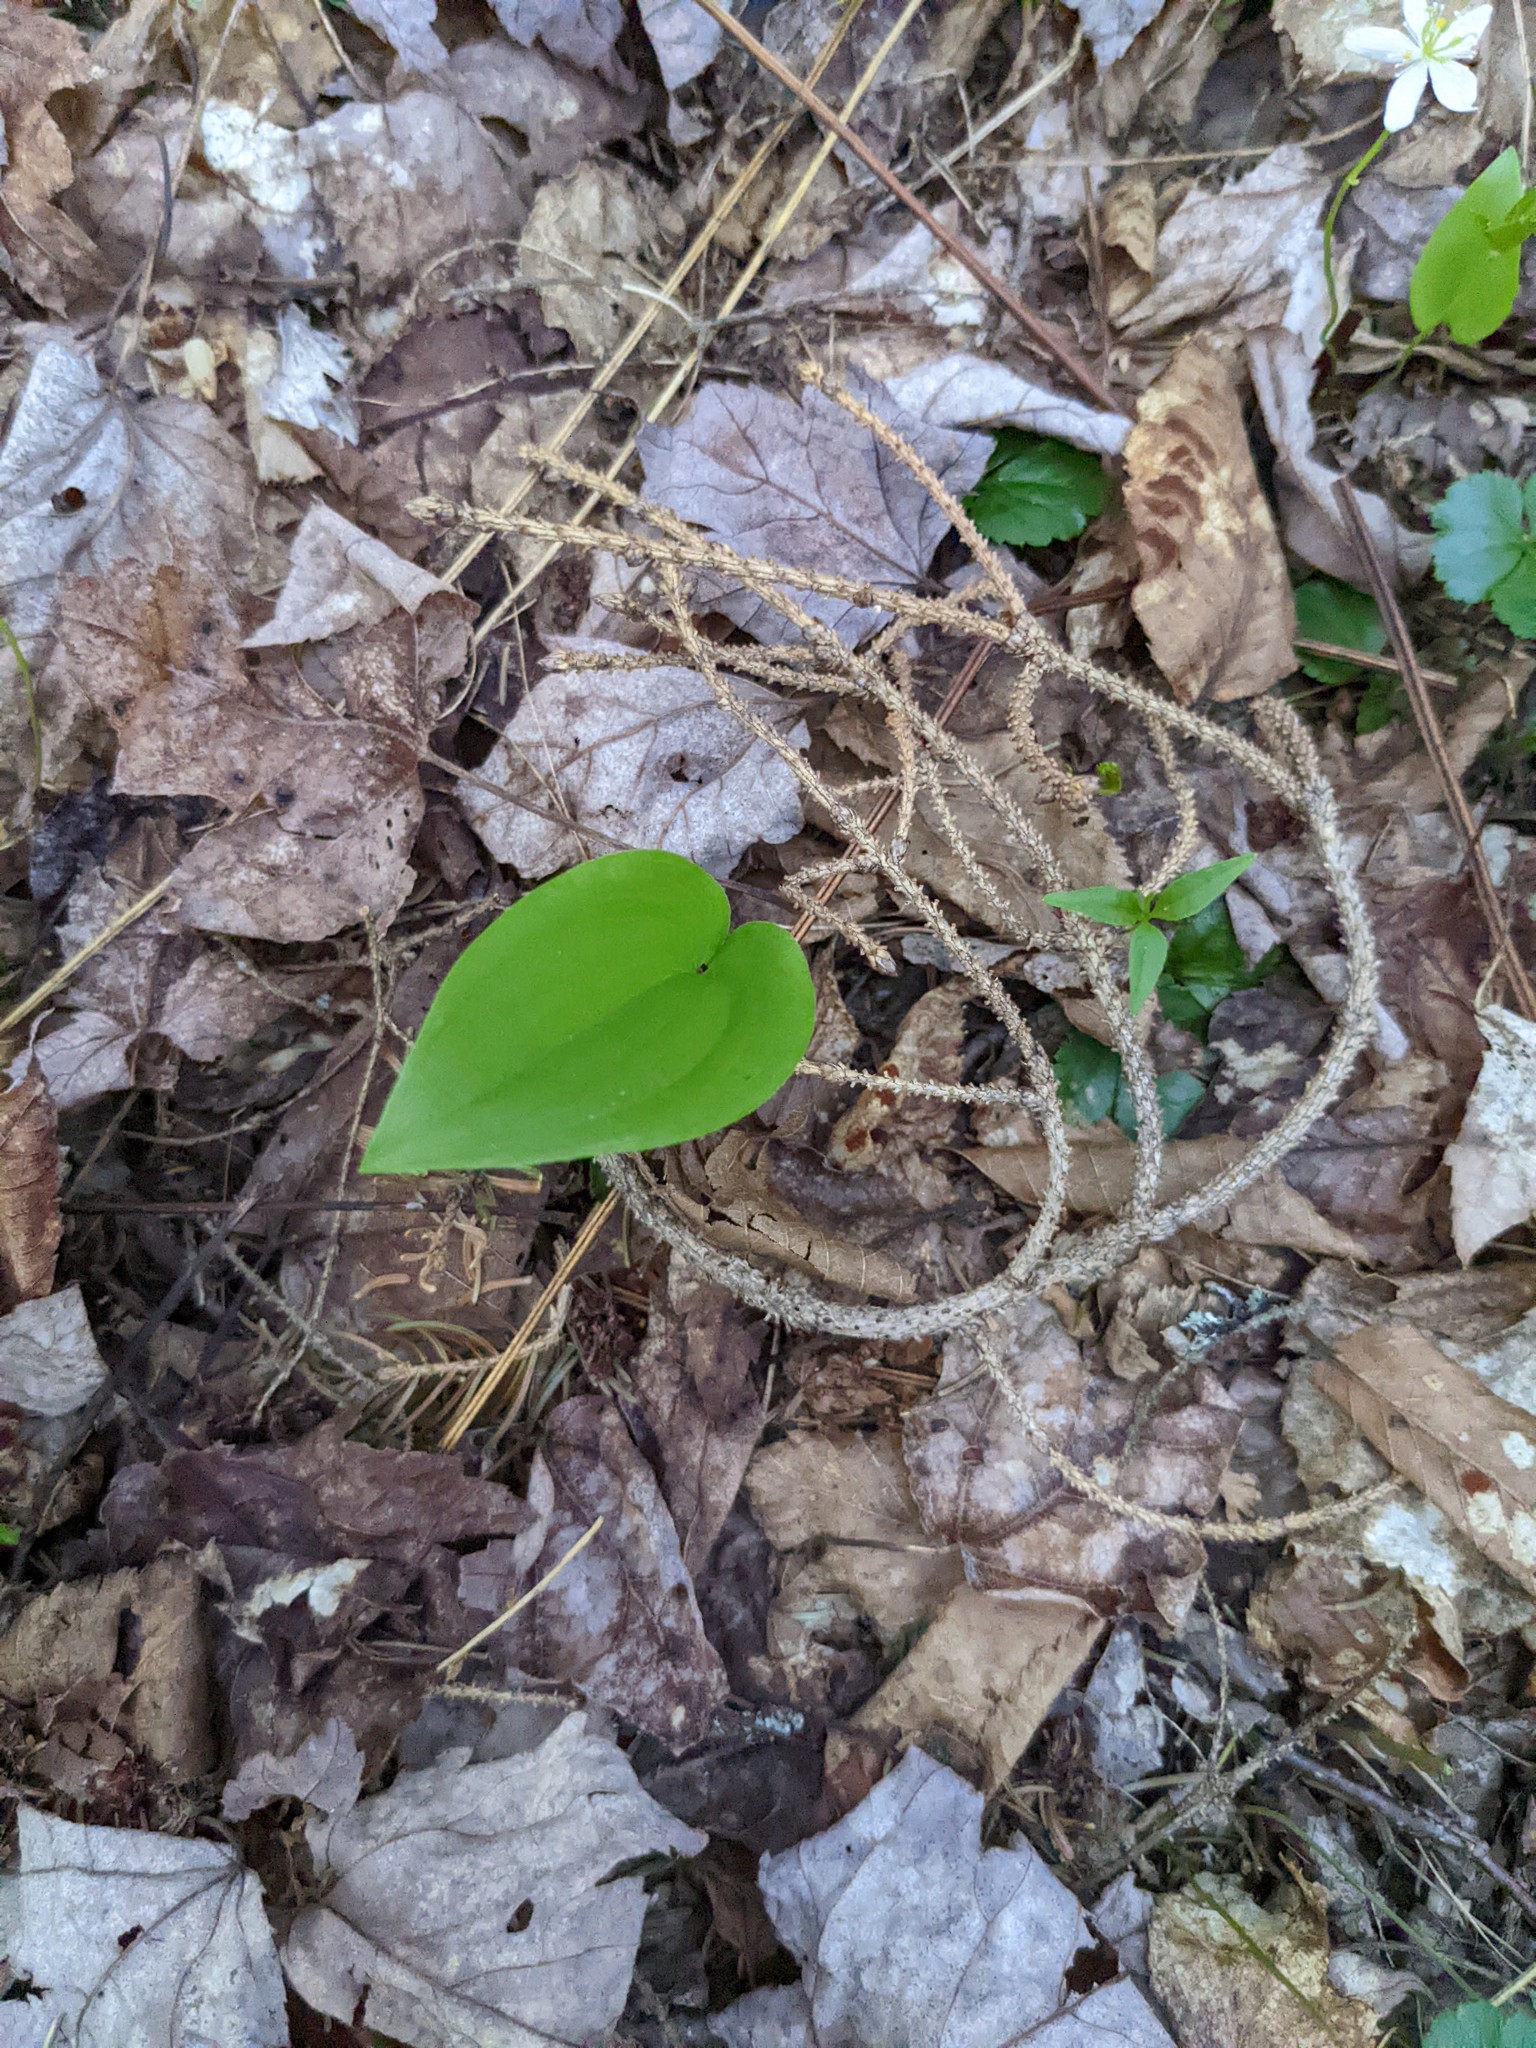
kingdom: Plantae
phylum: Tracheophyta
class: Liliopsida
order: Asparagales
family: Asparagaceae
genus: Maianthemum
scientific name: Maianthemum canadense
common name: False lily-of-the-valley
